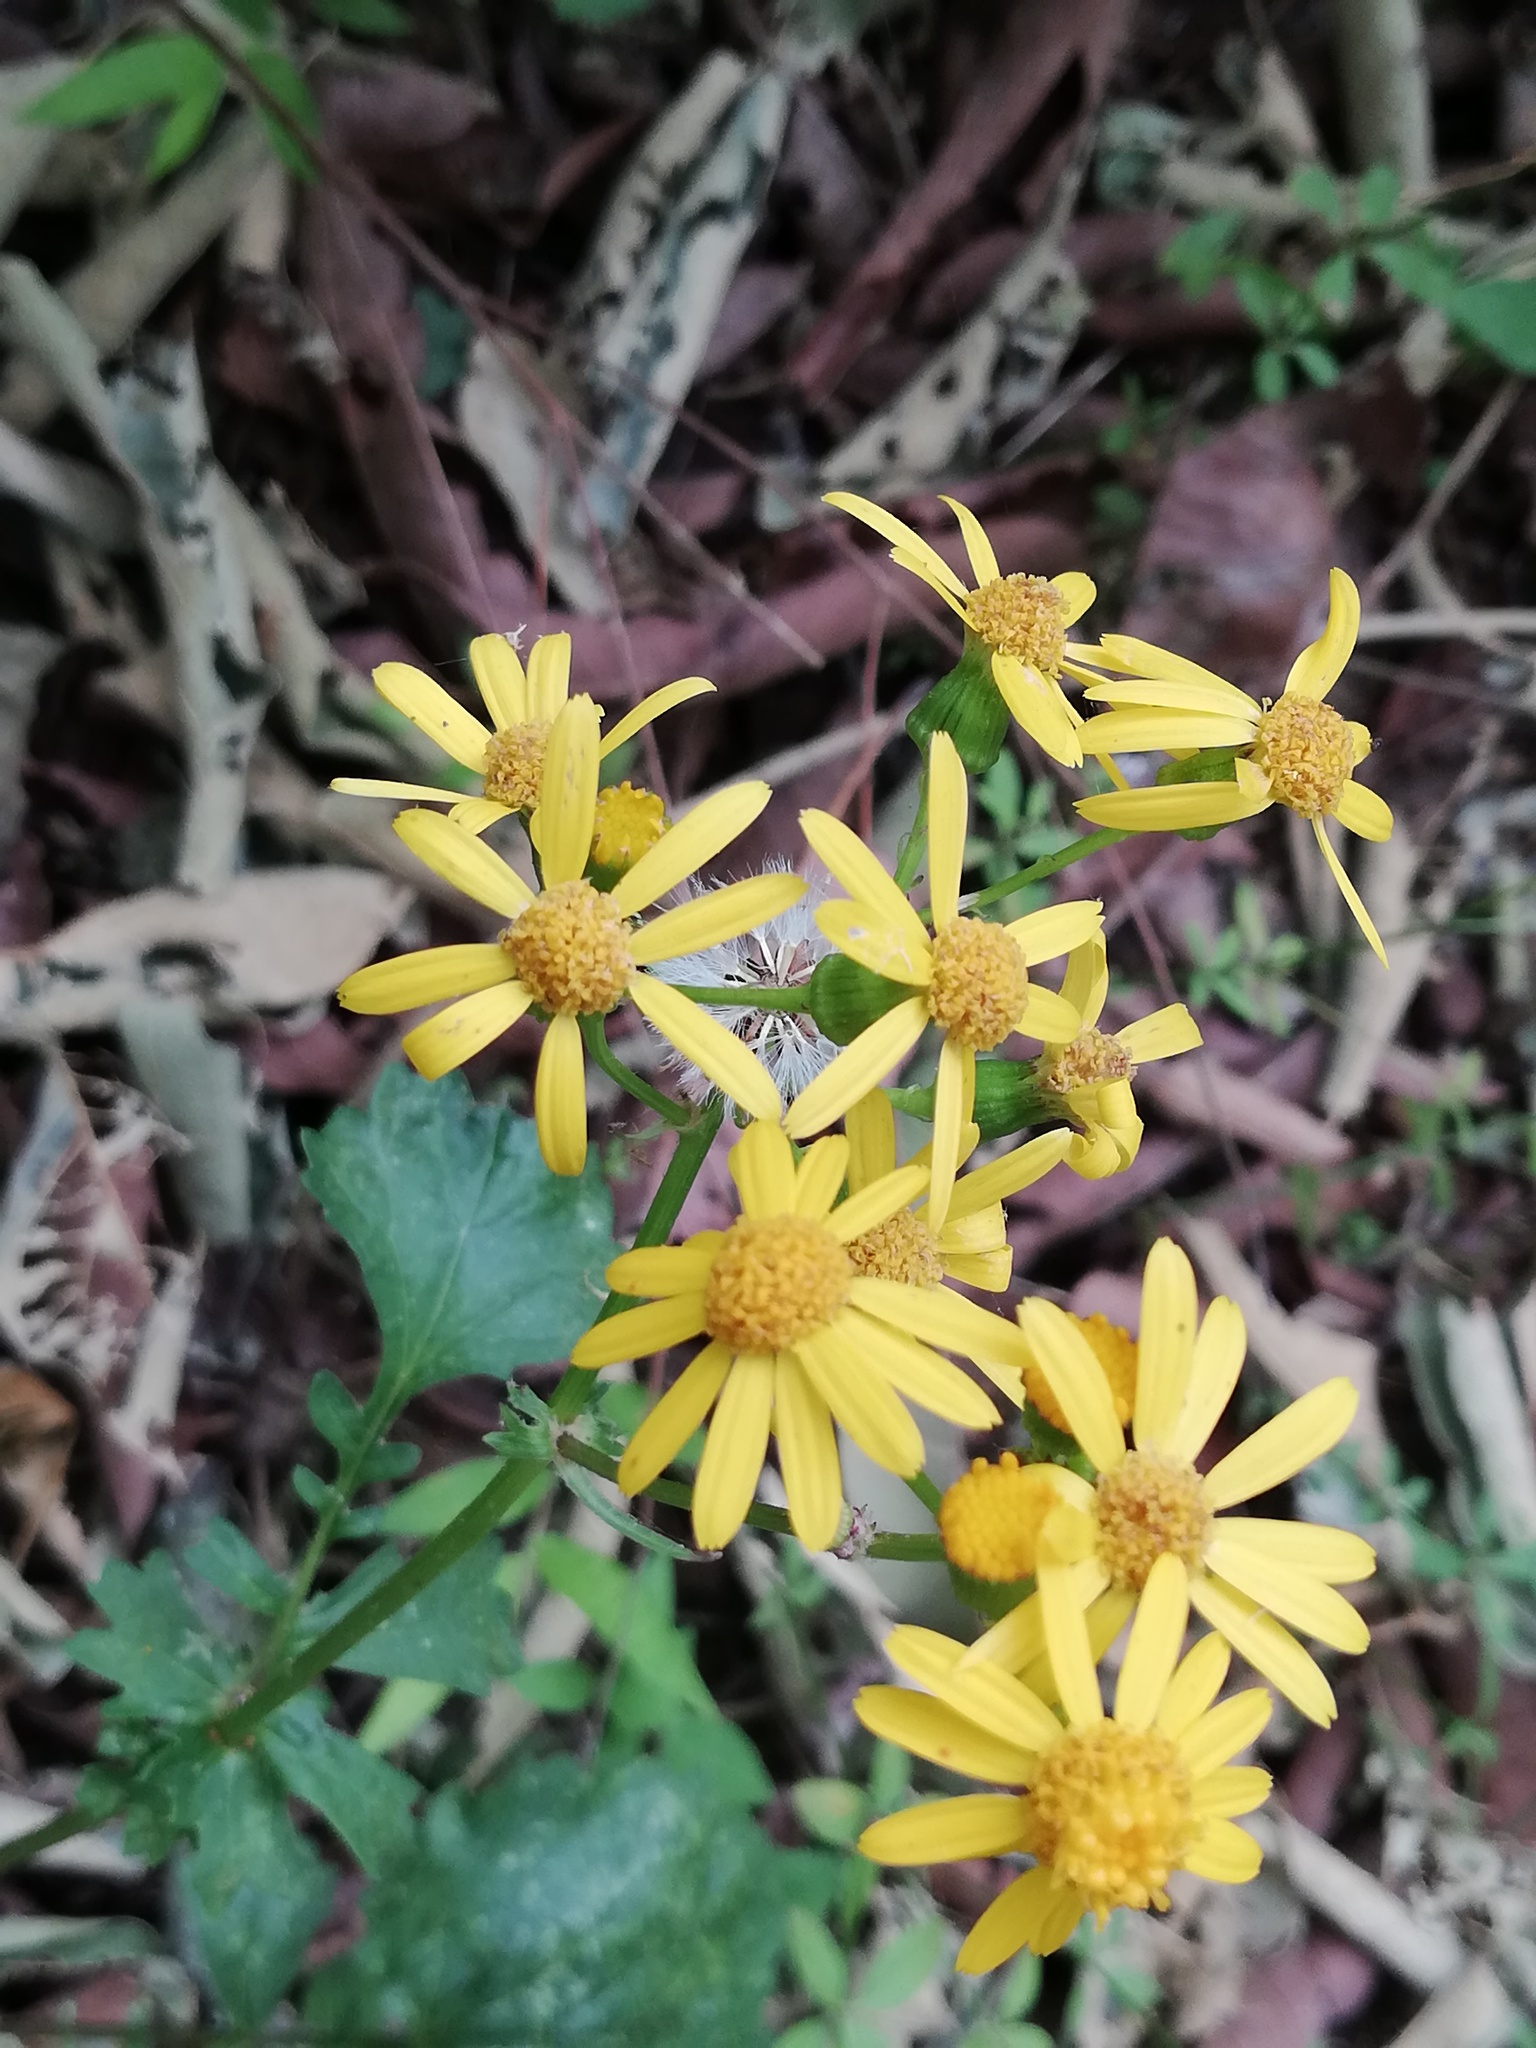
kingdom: Plantae
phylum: Tracheophyta
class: Magnoliopsida
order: Asterales
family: Asteraceae
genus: Packera
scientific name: Packera coahuilensis
